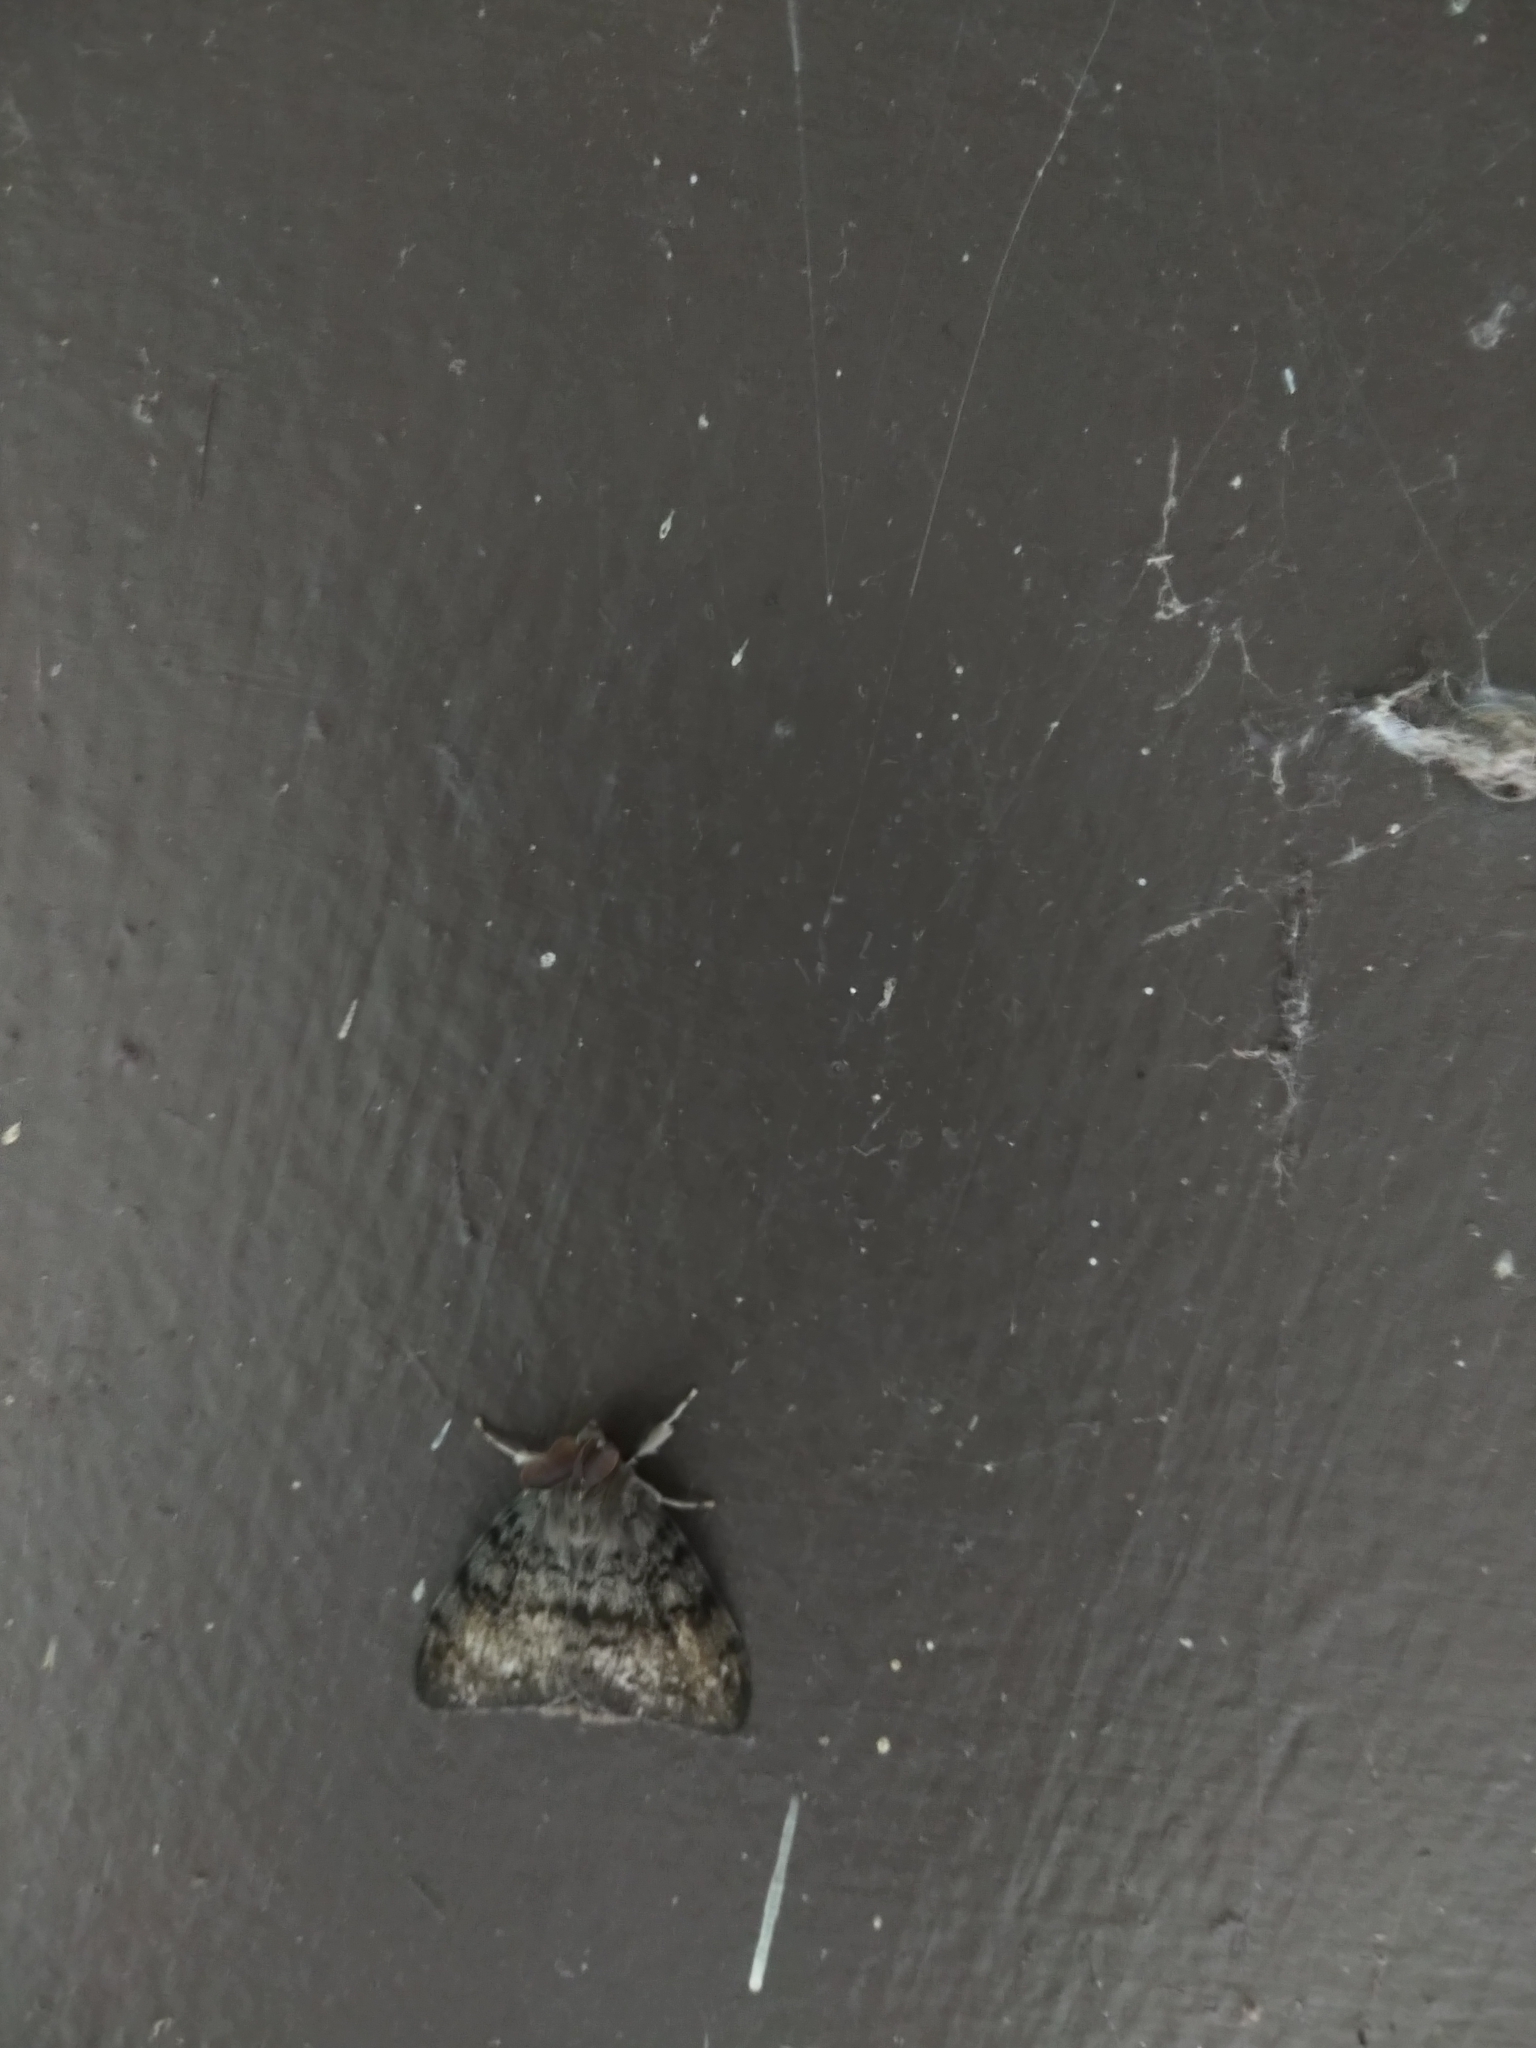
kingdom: Animalia
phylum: Arthropoda
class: Insecta
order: Lepidoptera
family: Erebidae
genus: Lymantria
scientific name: Lymantria dispar
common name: Gypsy moth
